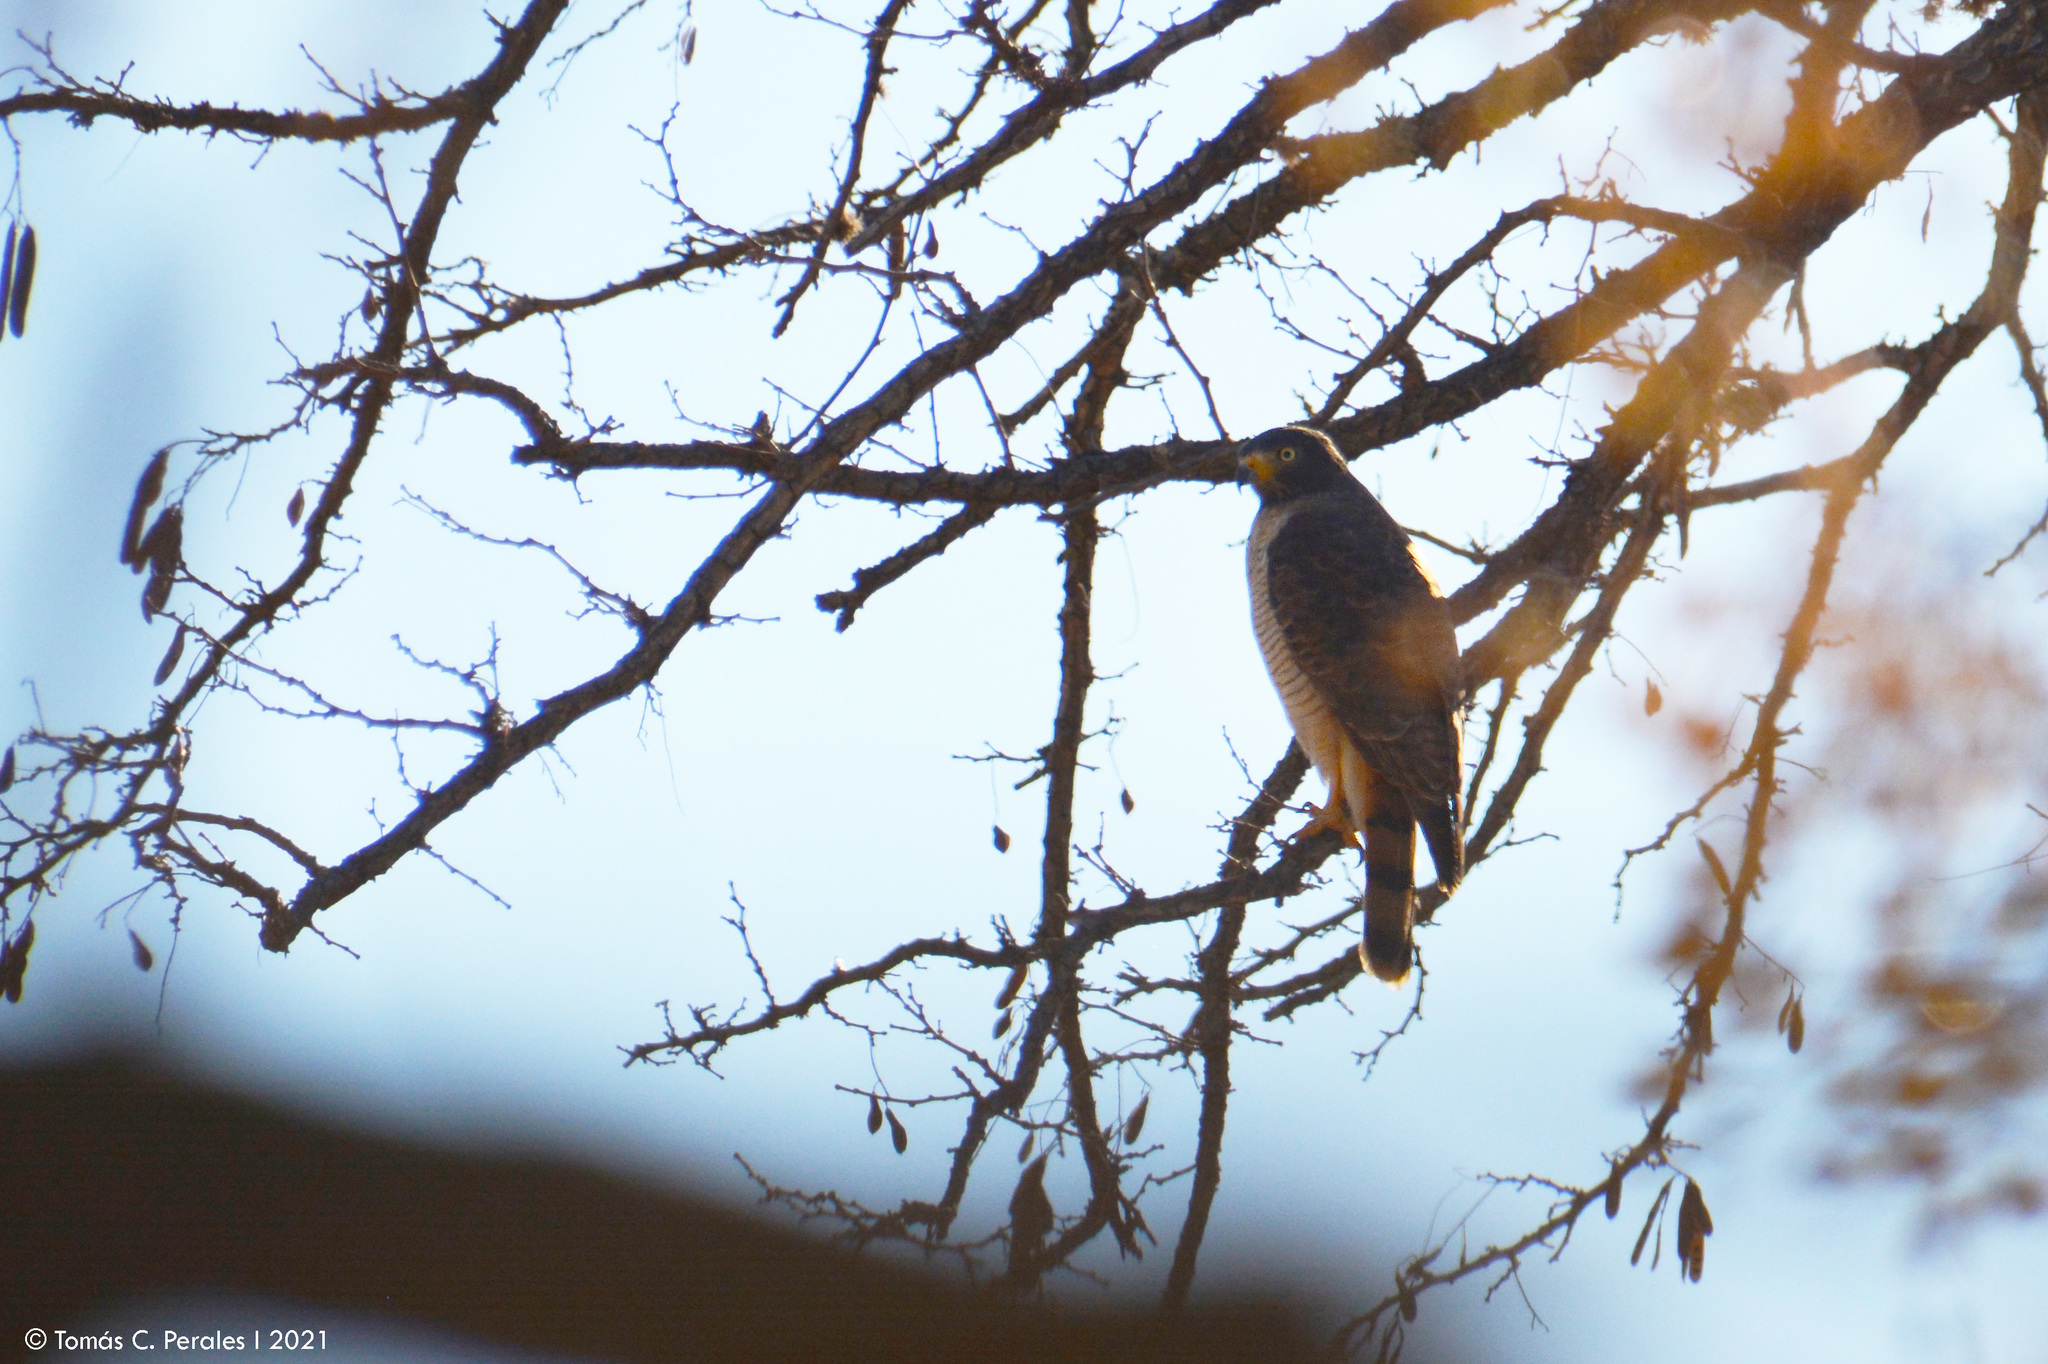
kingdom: Animalia
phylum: Chordata
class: Aves
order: Accipitriformes
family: Accipitridae
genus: Rupornis
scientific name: Rupornis magnirostris
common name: Roadside hawk
